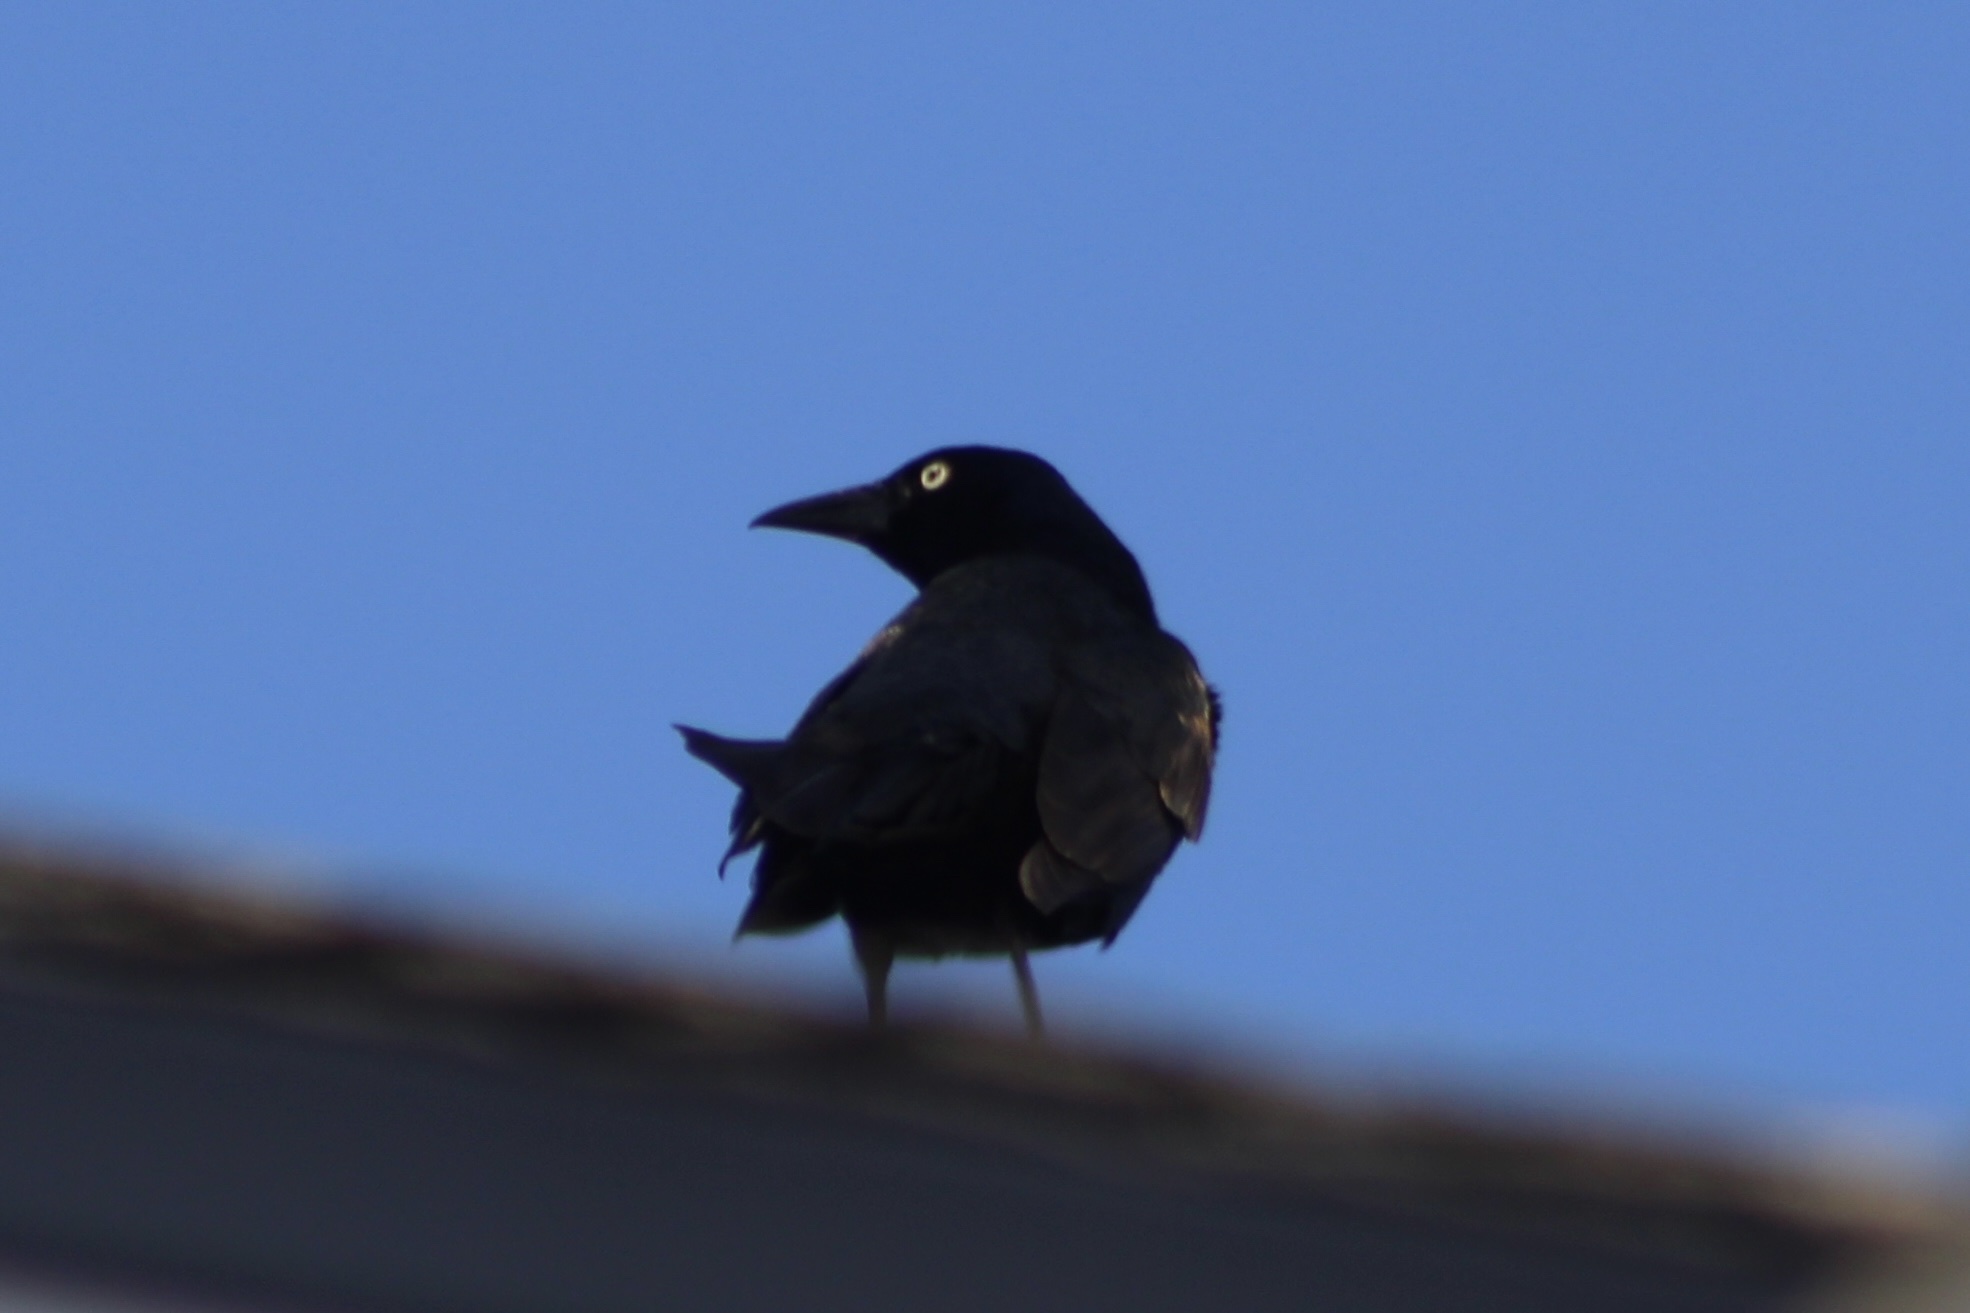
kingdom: Animalia
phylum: Chordata
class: Aves
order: Passeriformes
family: Icteridae
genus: Quiscalus
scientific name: Quiscalus quiscula
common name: Common grackle
